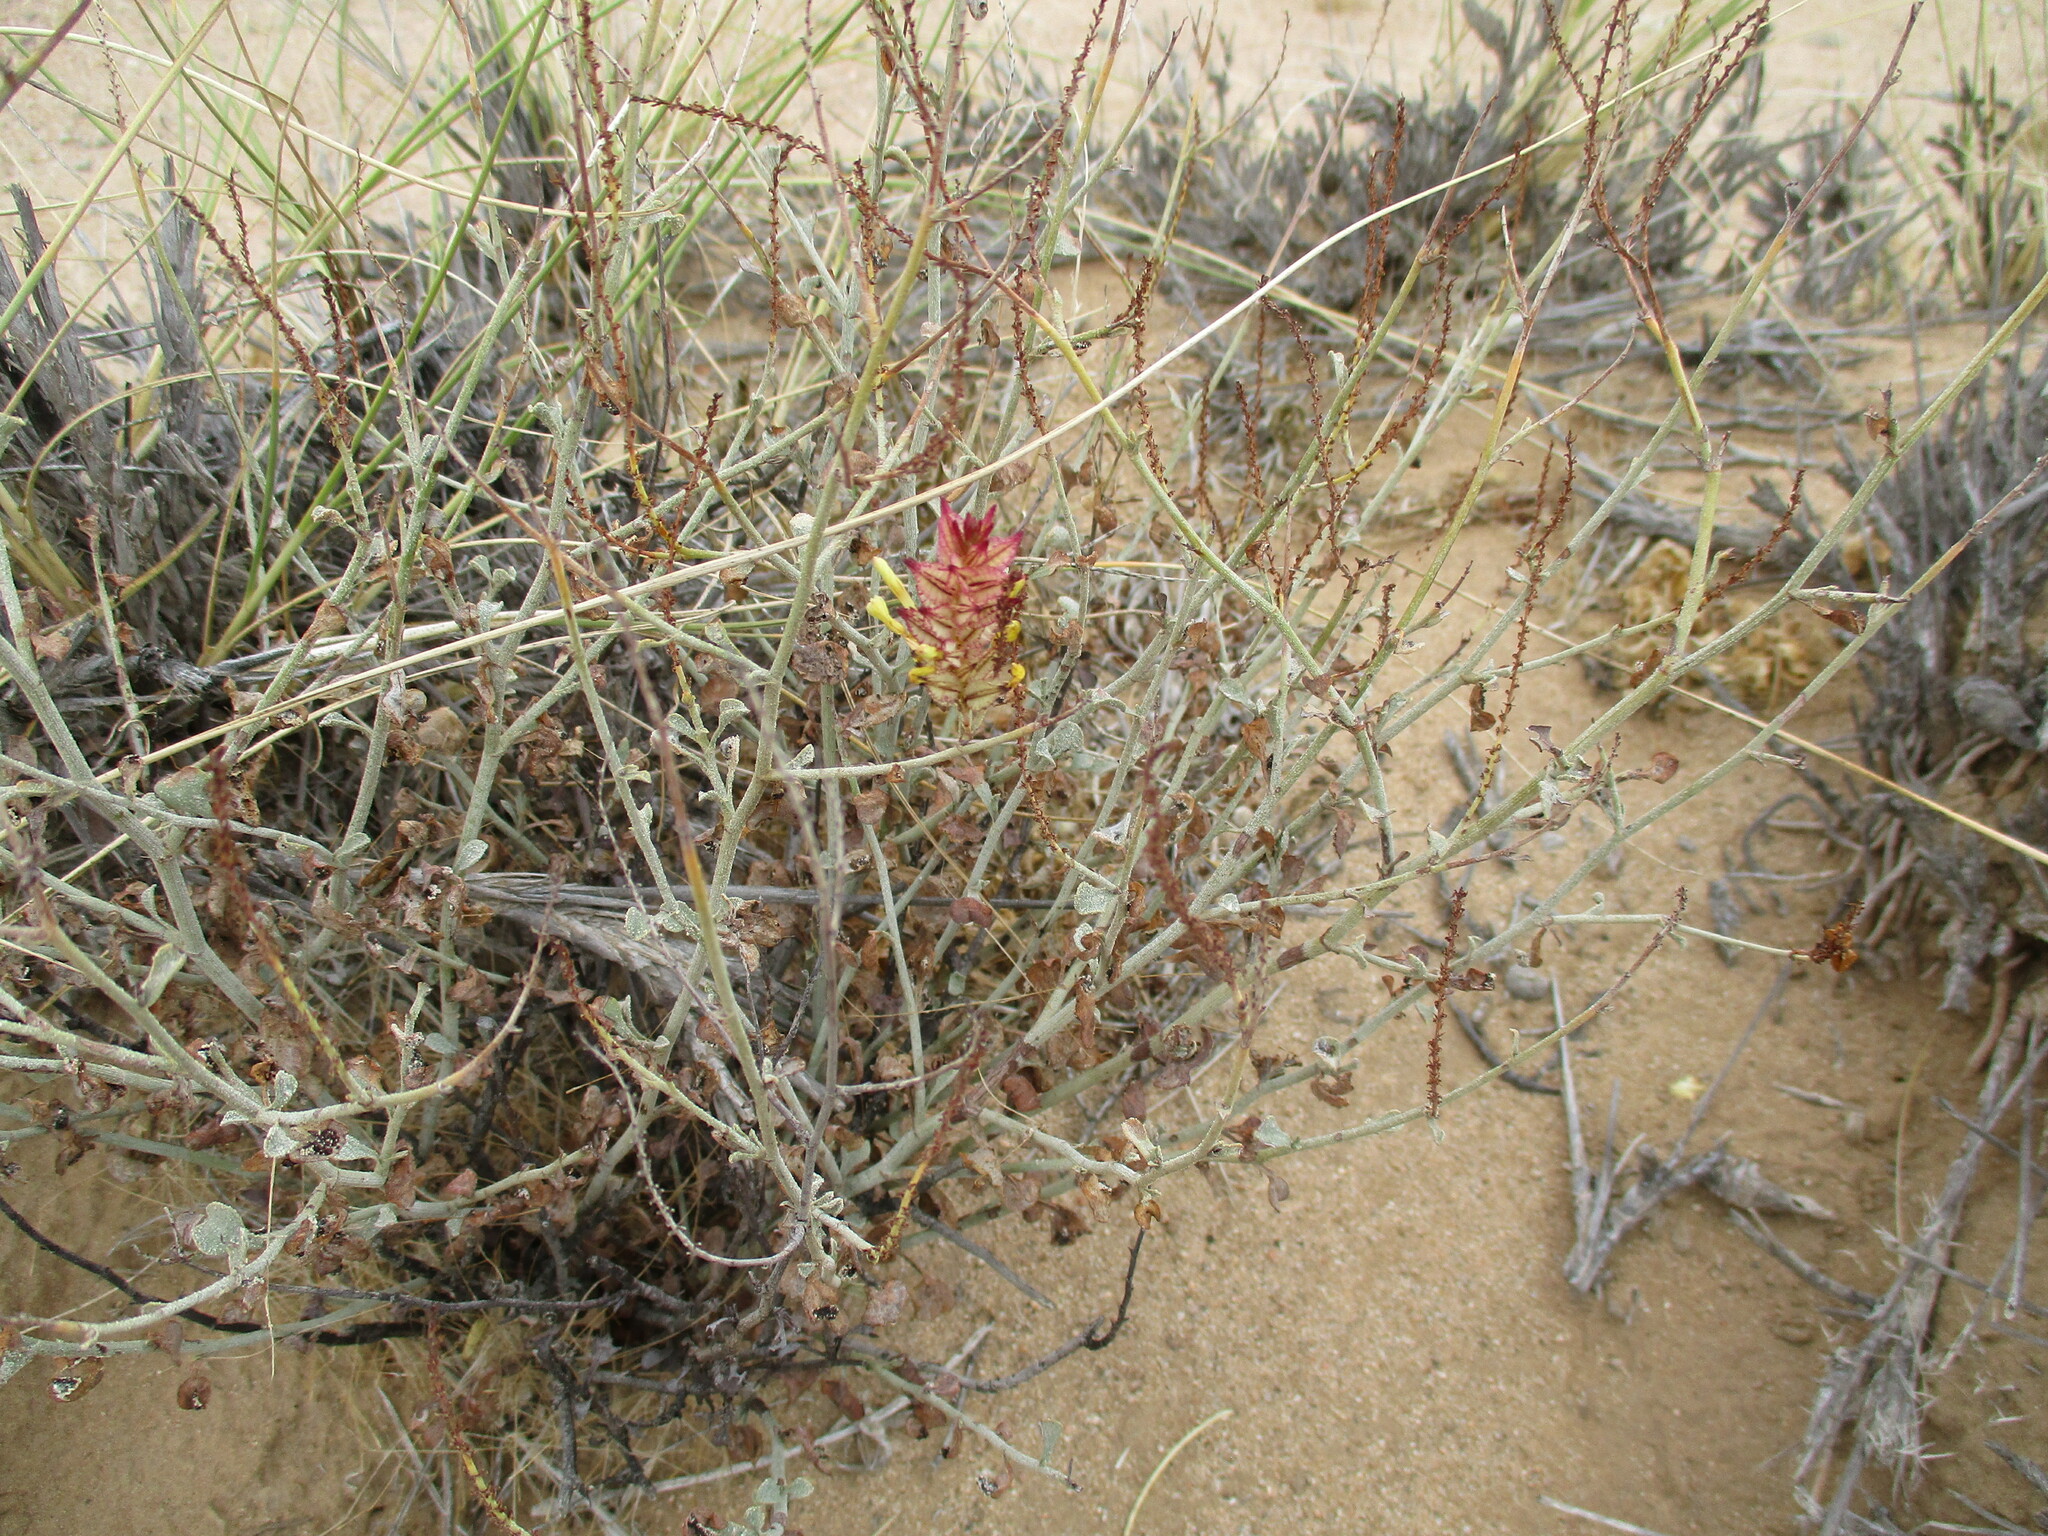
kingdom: Plantae
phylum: Tracheophyta
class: Magnoliopsida
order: Caryophyllales
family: Plumbaginaceae
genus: Dyerophytum
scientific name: Dyerophytum africanum
